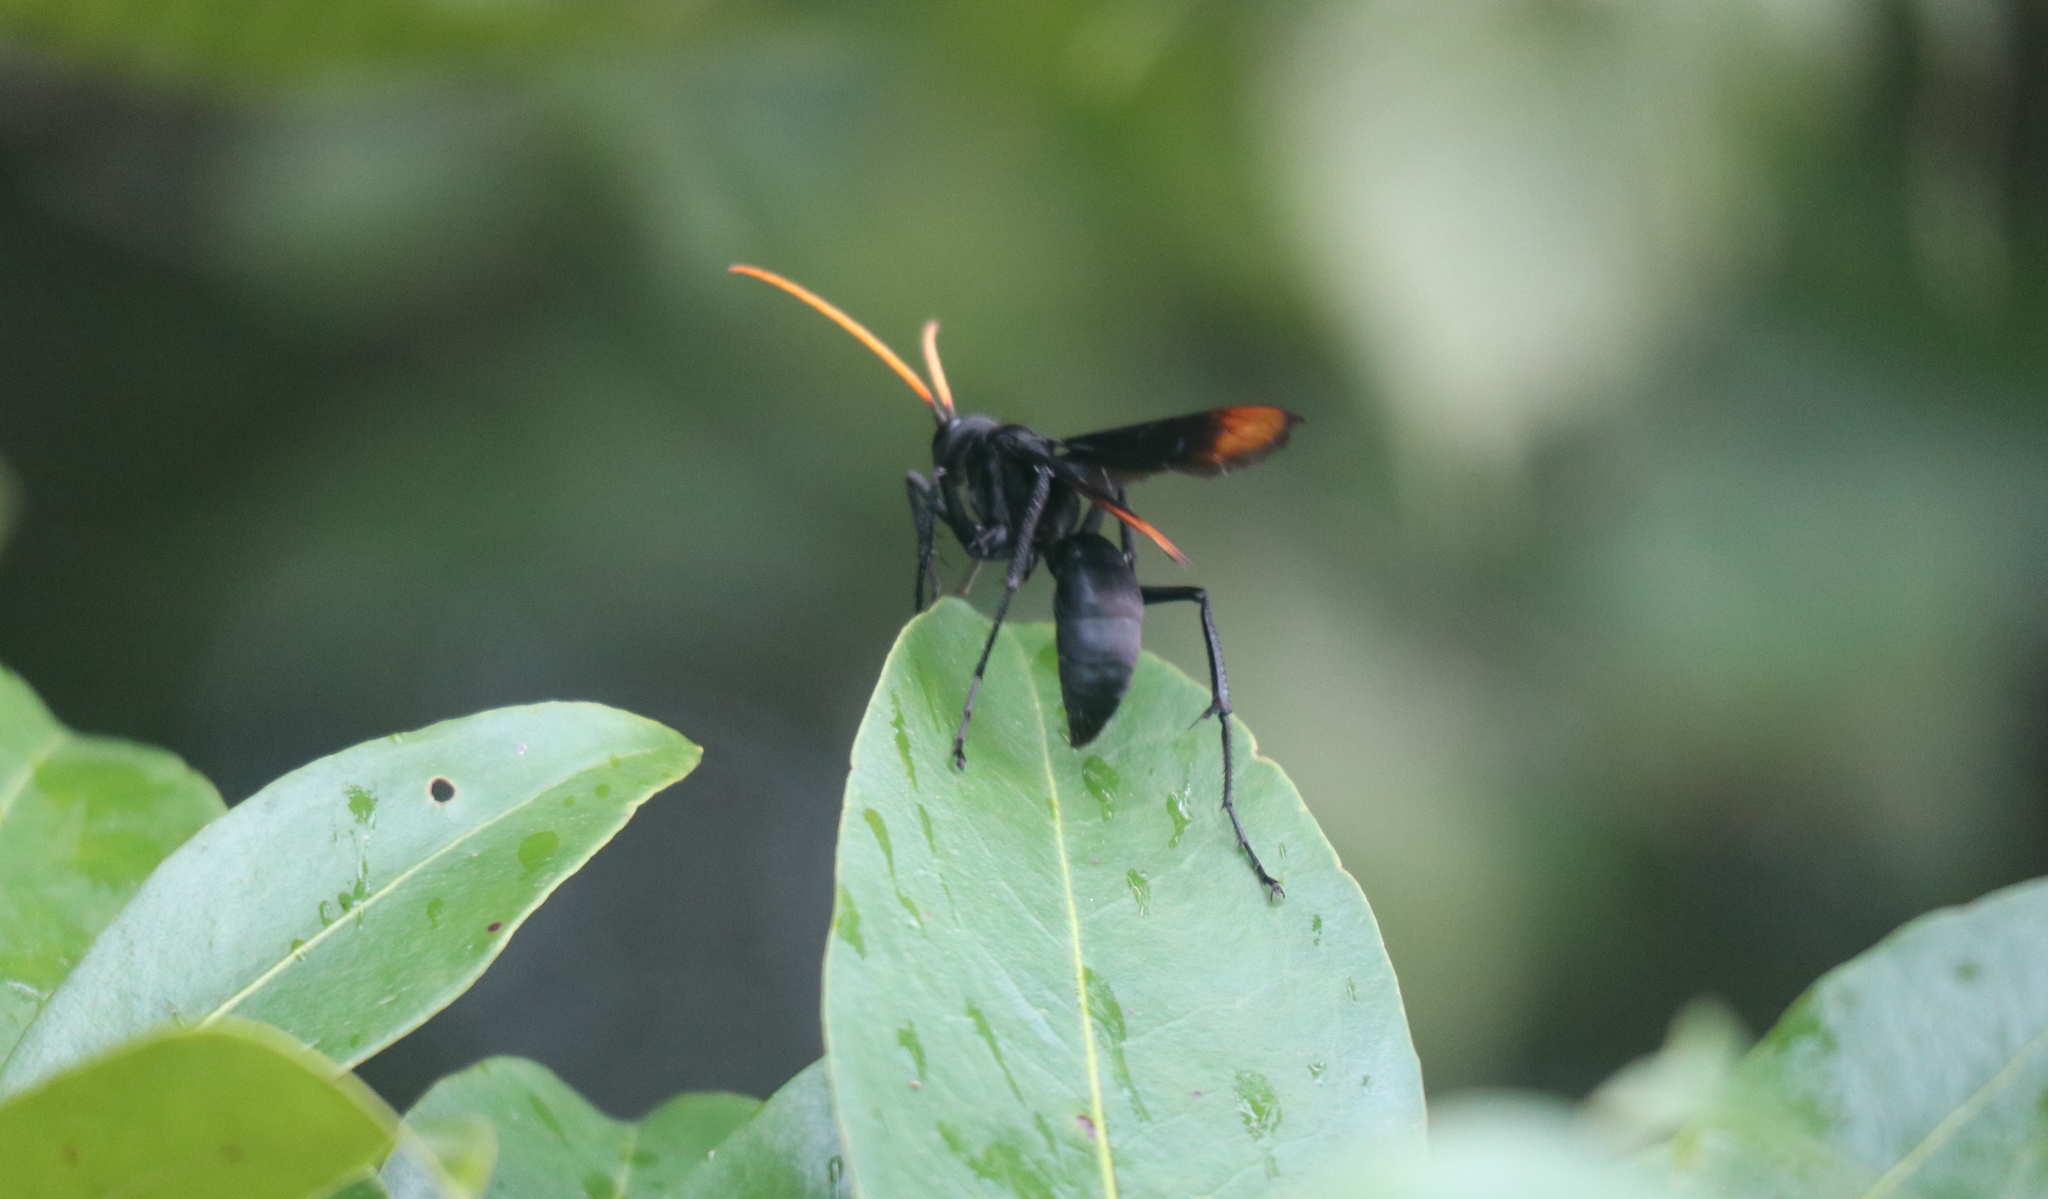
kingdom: Animalia
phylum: Arthropoda
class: Insecta
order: Hymenoptera
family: Pompilidae
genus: Entypus
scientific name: Entypus unifasciatus
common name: Eastern tawny-horned spider wasp
